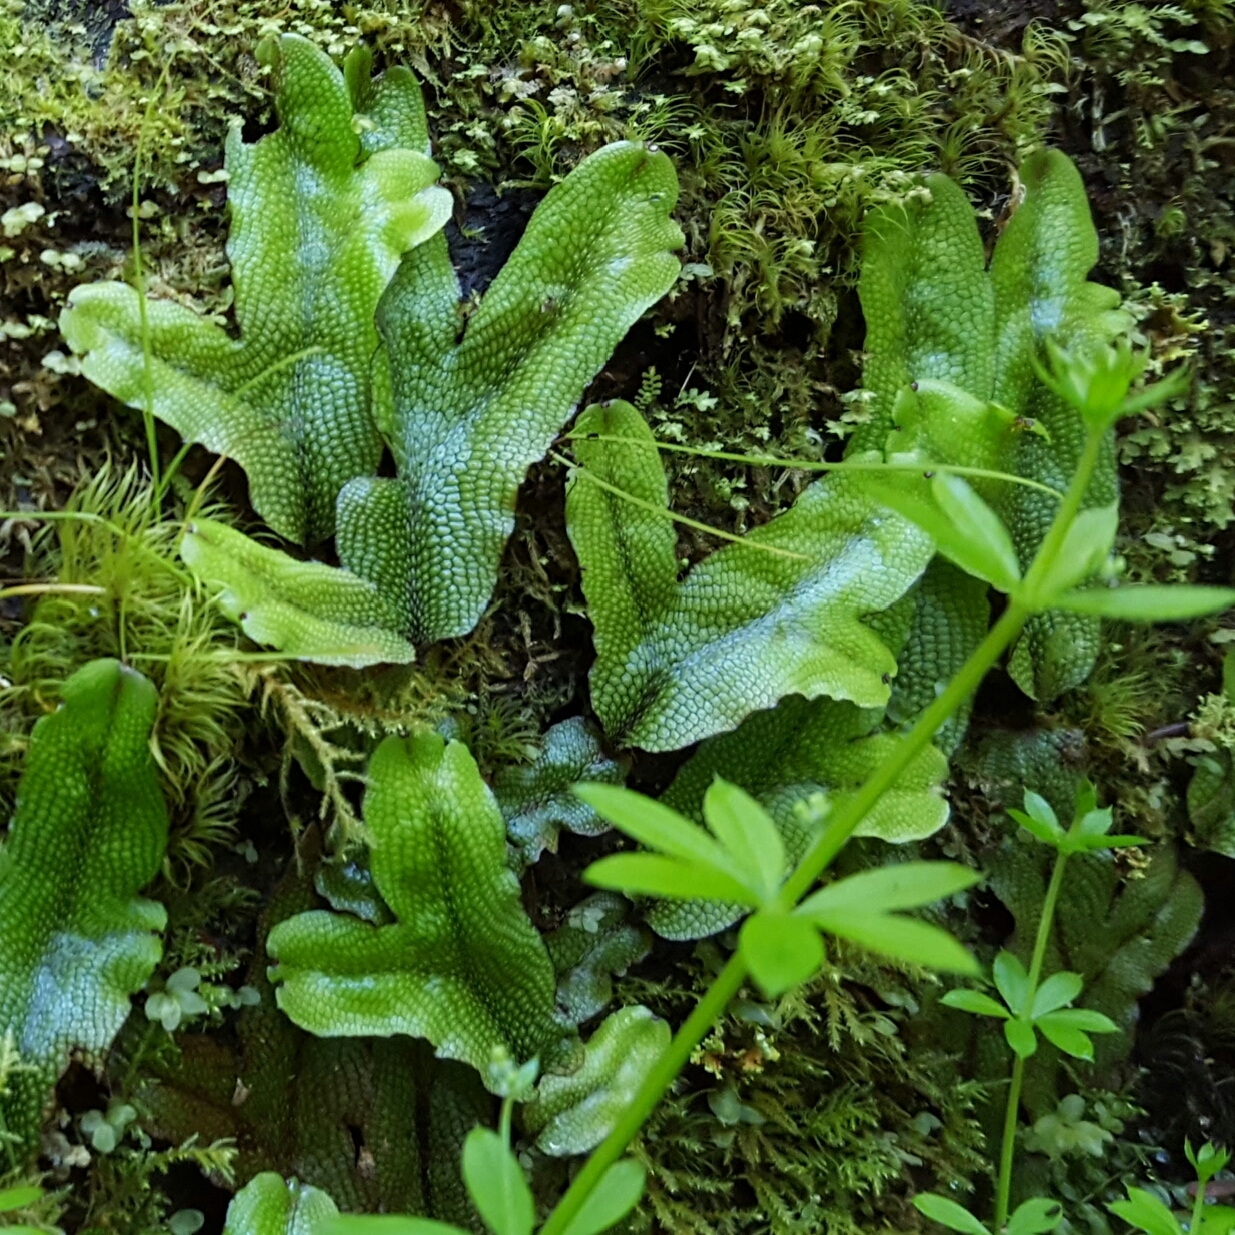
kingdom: Plantae
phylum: Marchantiophyta
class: Marchantiopsida
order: Marchantiales
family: Conocephalaceae
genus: Conocephalum
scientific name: Conocephalum salebrosum
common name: Cat-tongue liverwort
